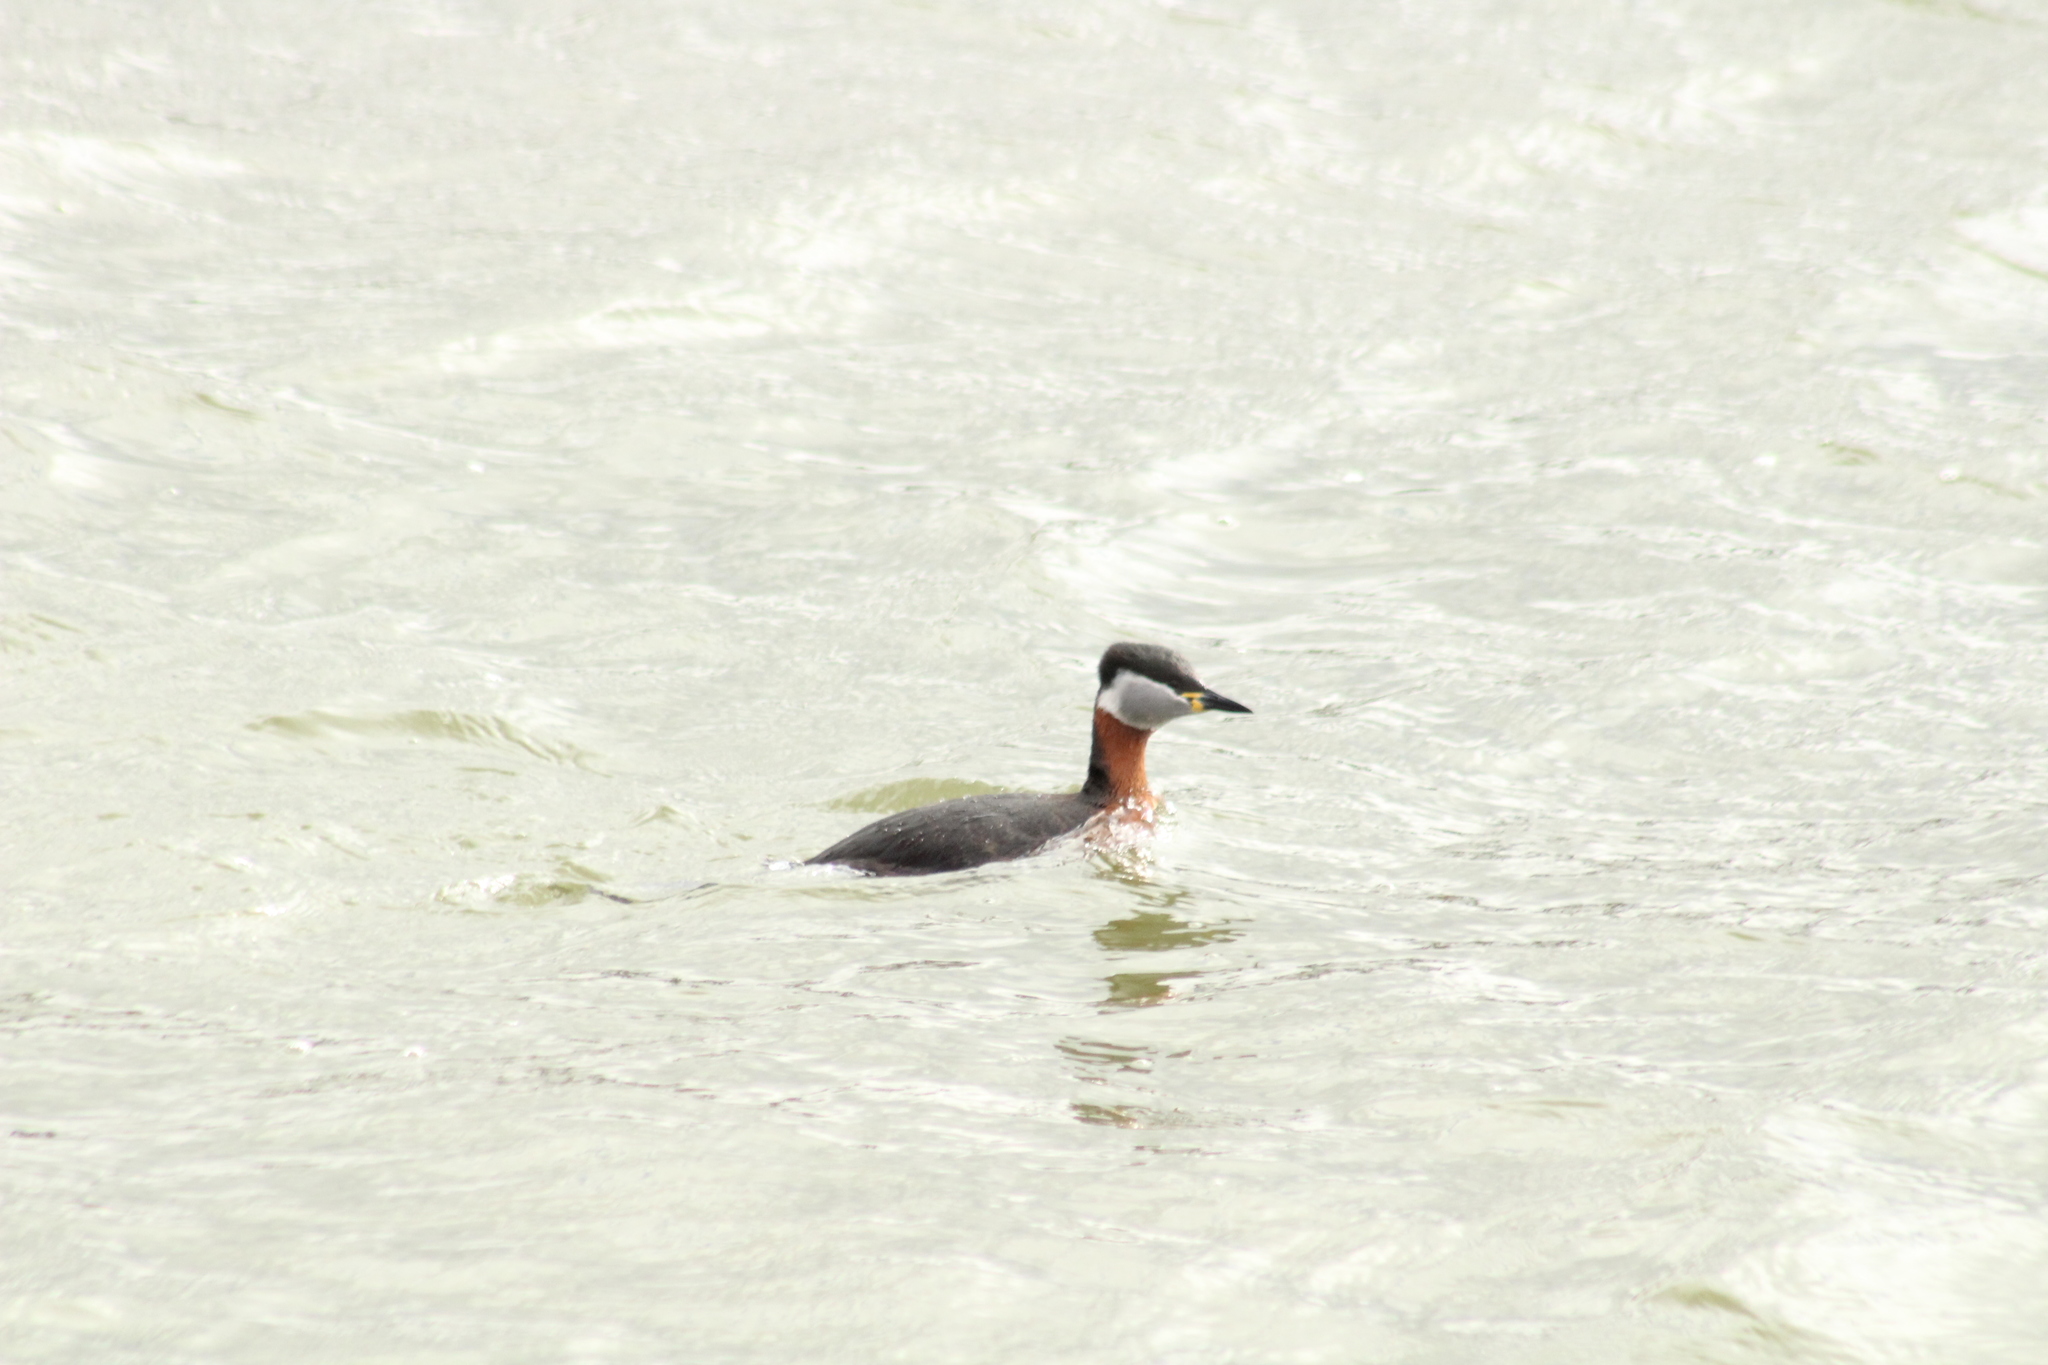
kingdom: Animalia
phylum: Chordata
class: Aves
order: Podicipediformes
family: Podicipedidae
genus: Podiceps
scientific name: Podiceps grisegena
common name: Red-necked grebe
